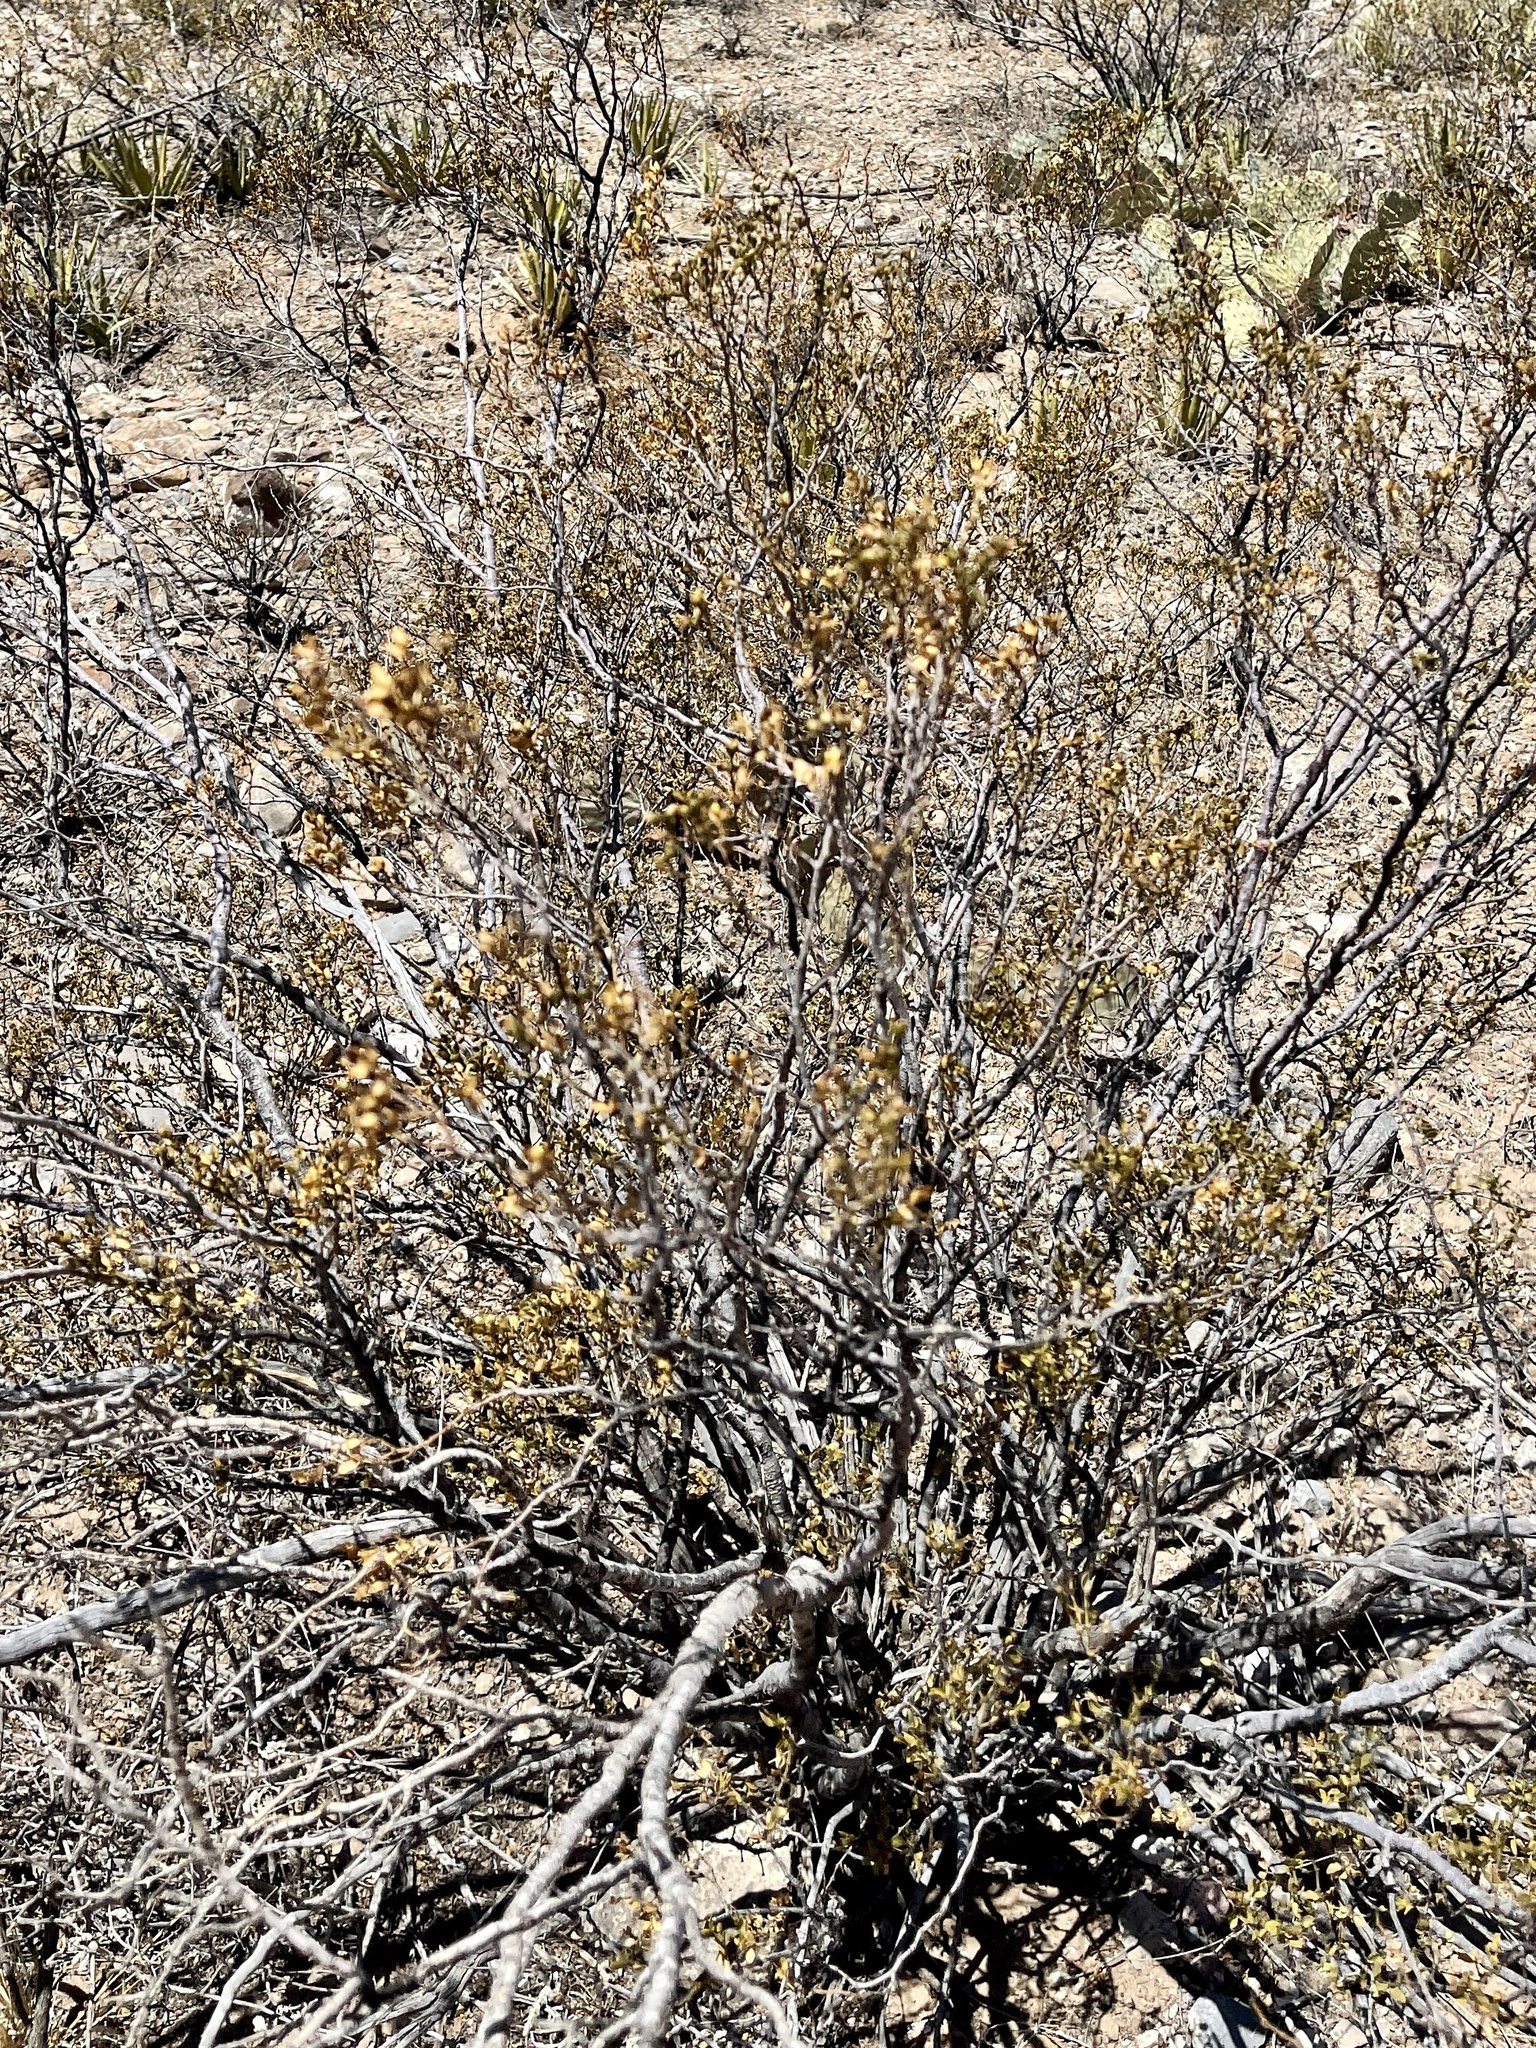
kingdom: Plantae
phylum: Tracheophyta
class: Magnoliopsida
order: Zygophyllales
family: Zygophyllaceae
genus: Larrea
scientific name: Larrea tridentata
